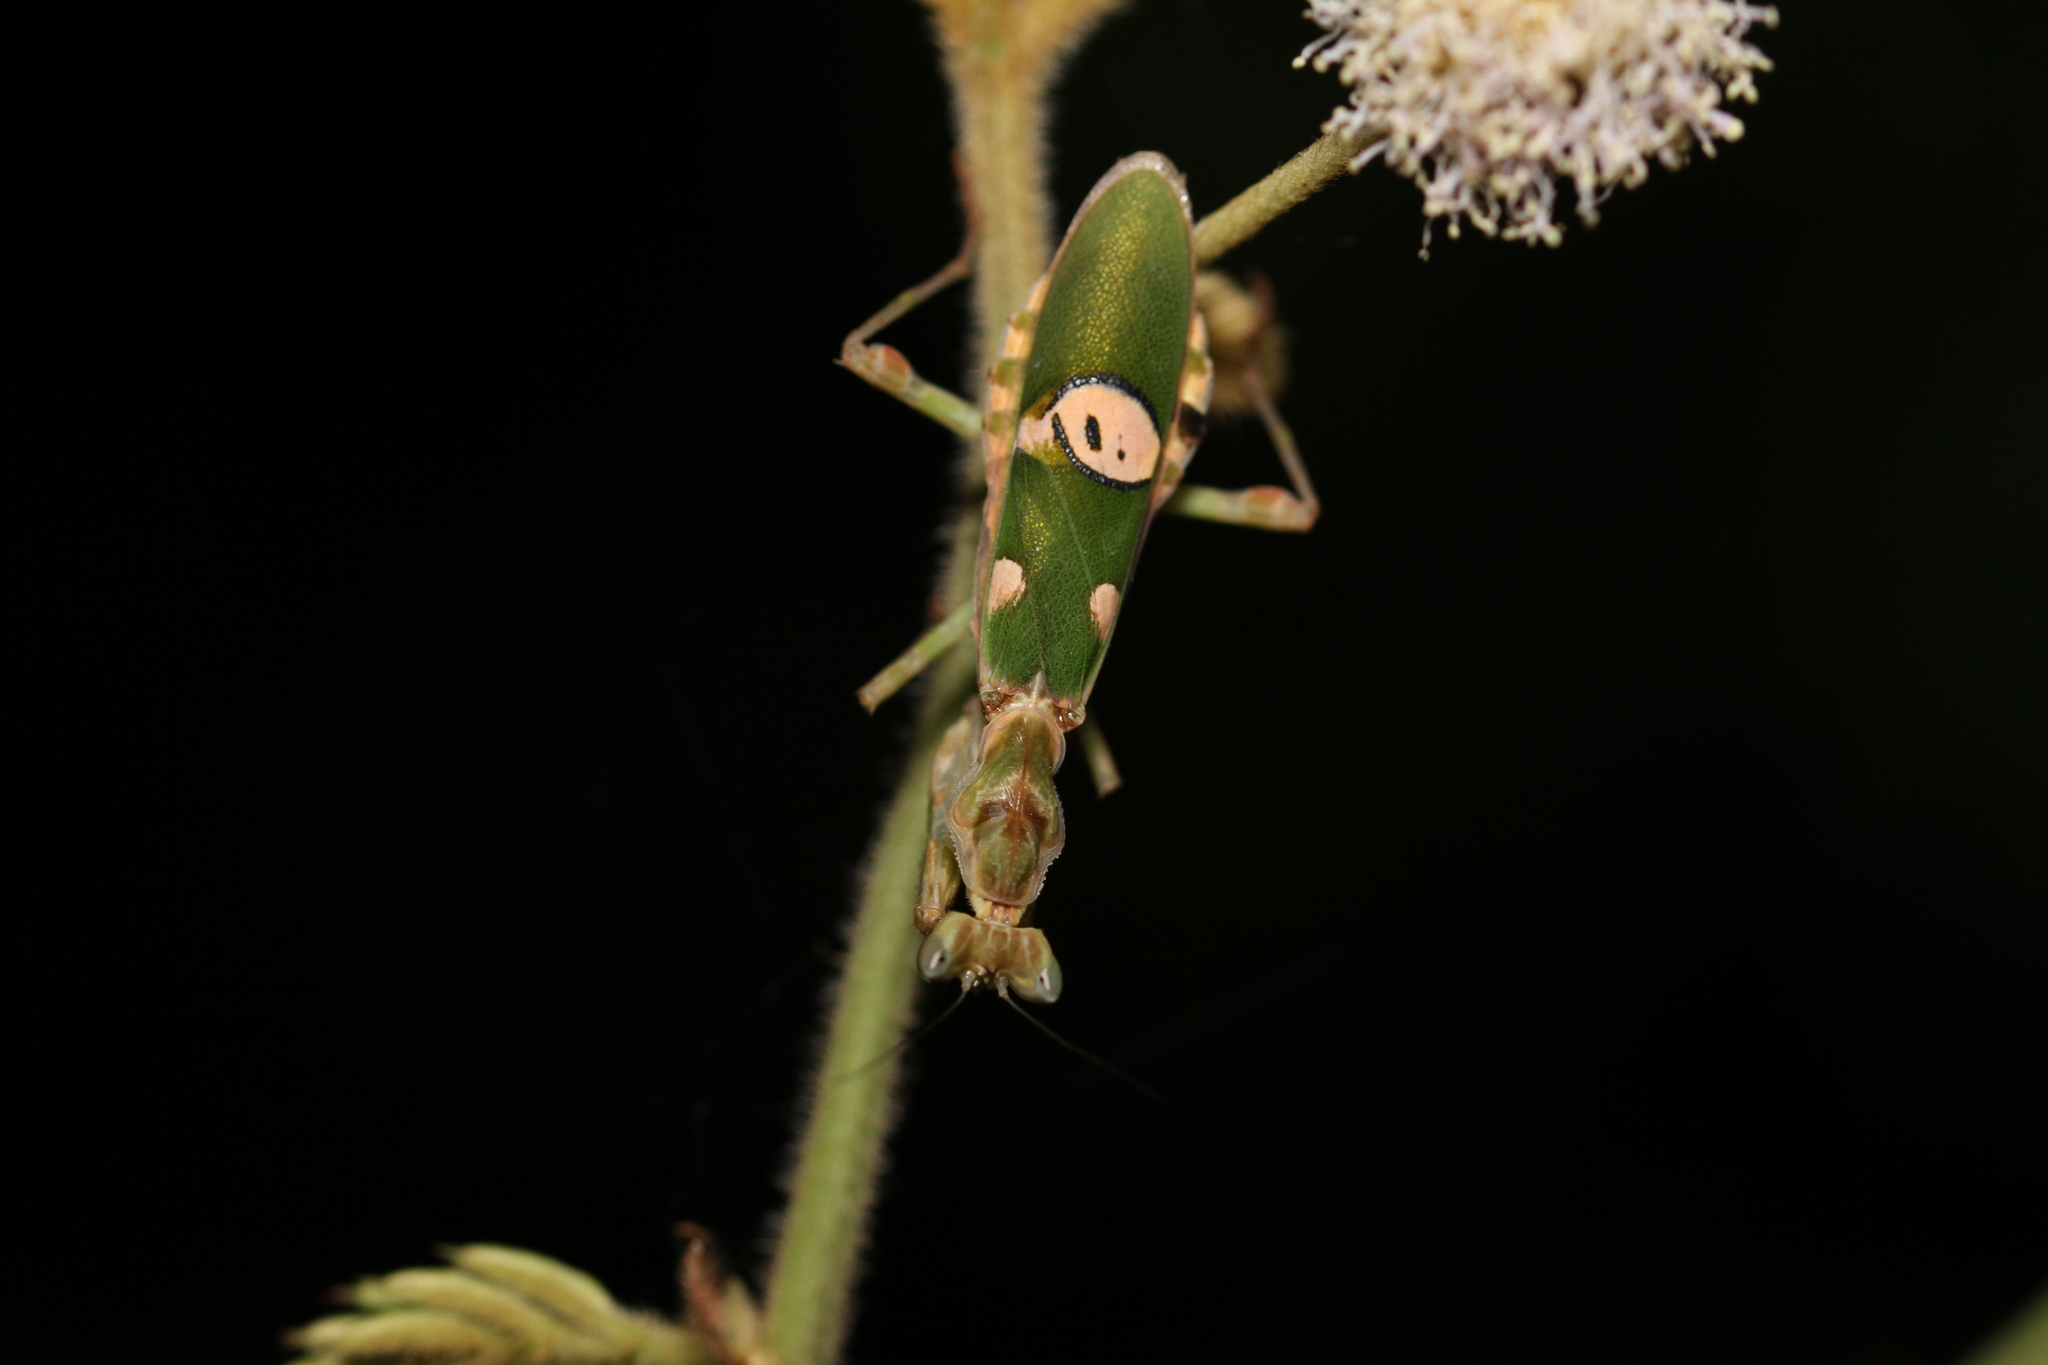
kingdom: Animalia
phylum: Arthropoda
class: Insecta
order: Mantodea
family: Hymenopodidae
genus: Creobroter
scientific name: Creobroter gemmatus
